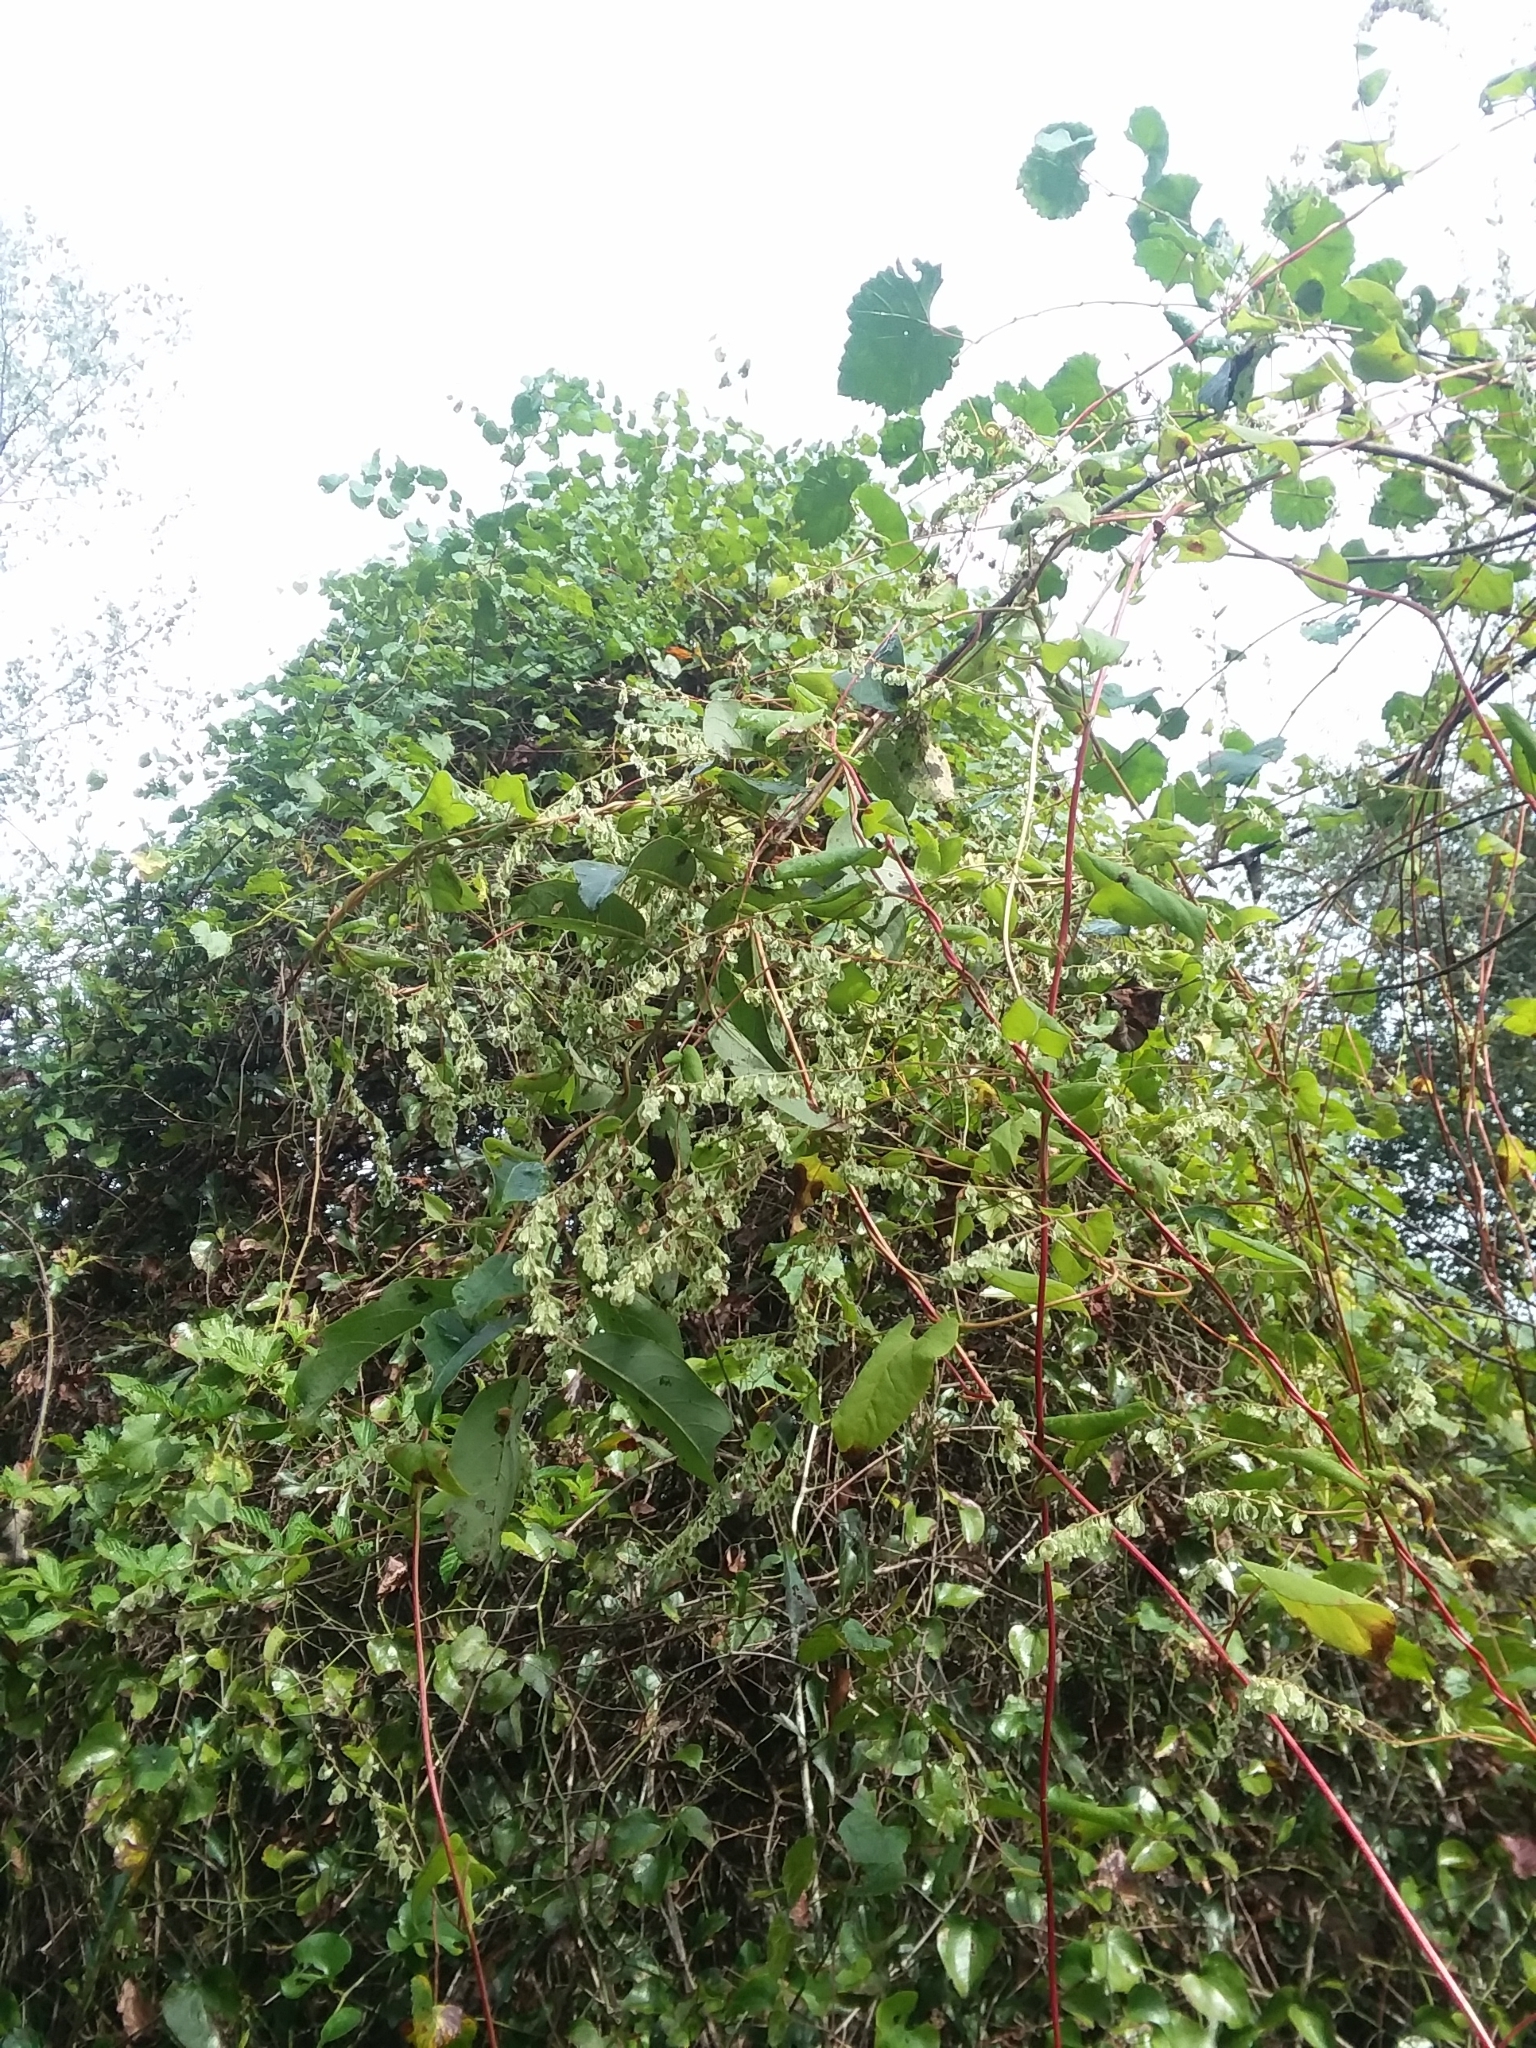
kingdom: Plantae
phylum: Tracheophyta
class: Magnoliopsida
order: Caryophyllales
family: Polygonaceae
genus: Fallopia
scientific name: Fallopia scandens
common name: Climbing false buckwheat
